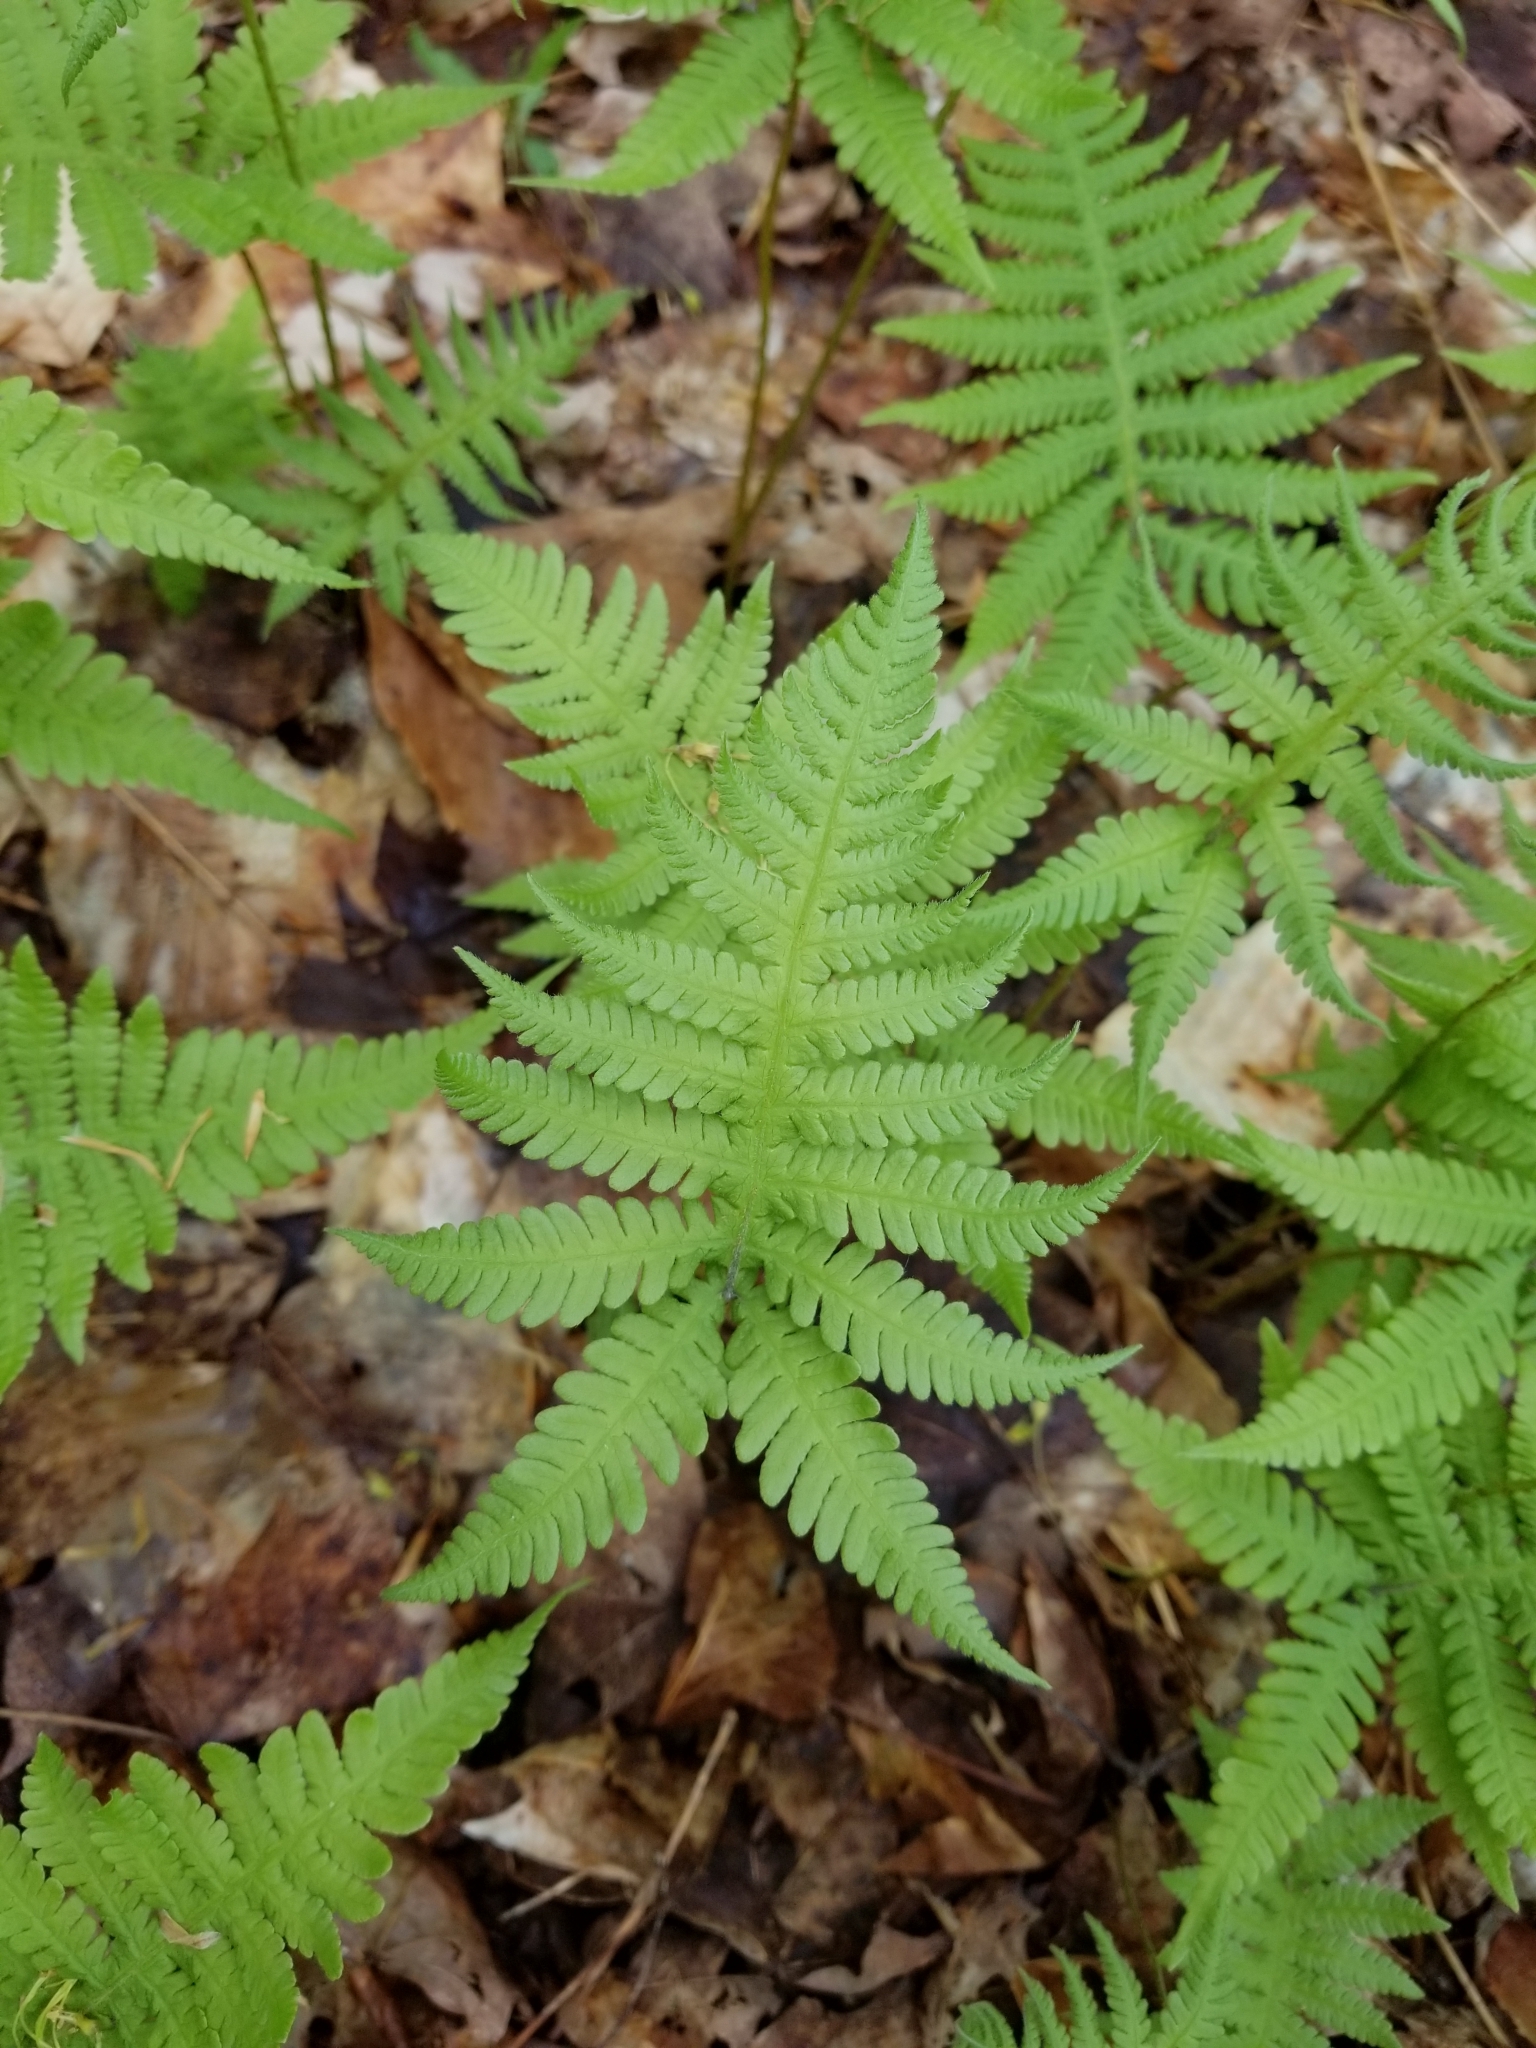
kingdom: Plantae
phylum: Tracheophyta
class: Polypodiopsida
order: Polypodiales
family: Thelypteridaceae
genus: Phegopteris
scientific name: Phegopteris connectilis
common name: Beech fern
